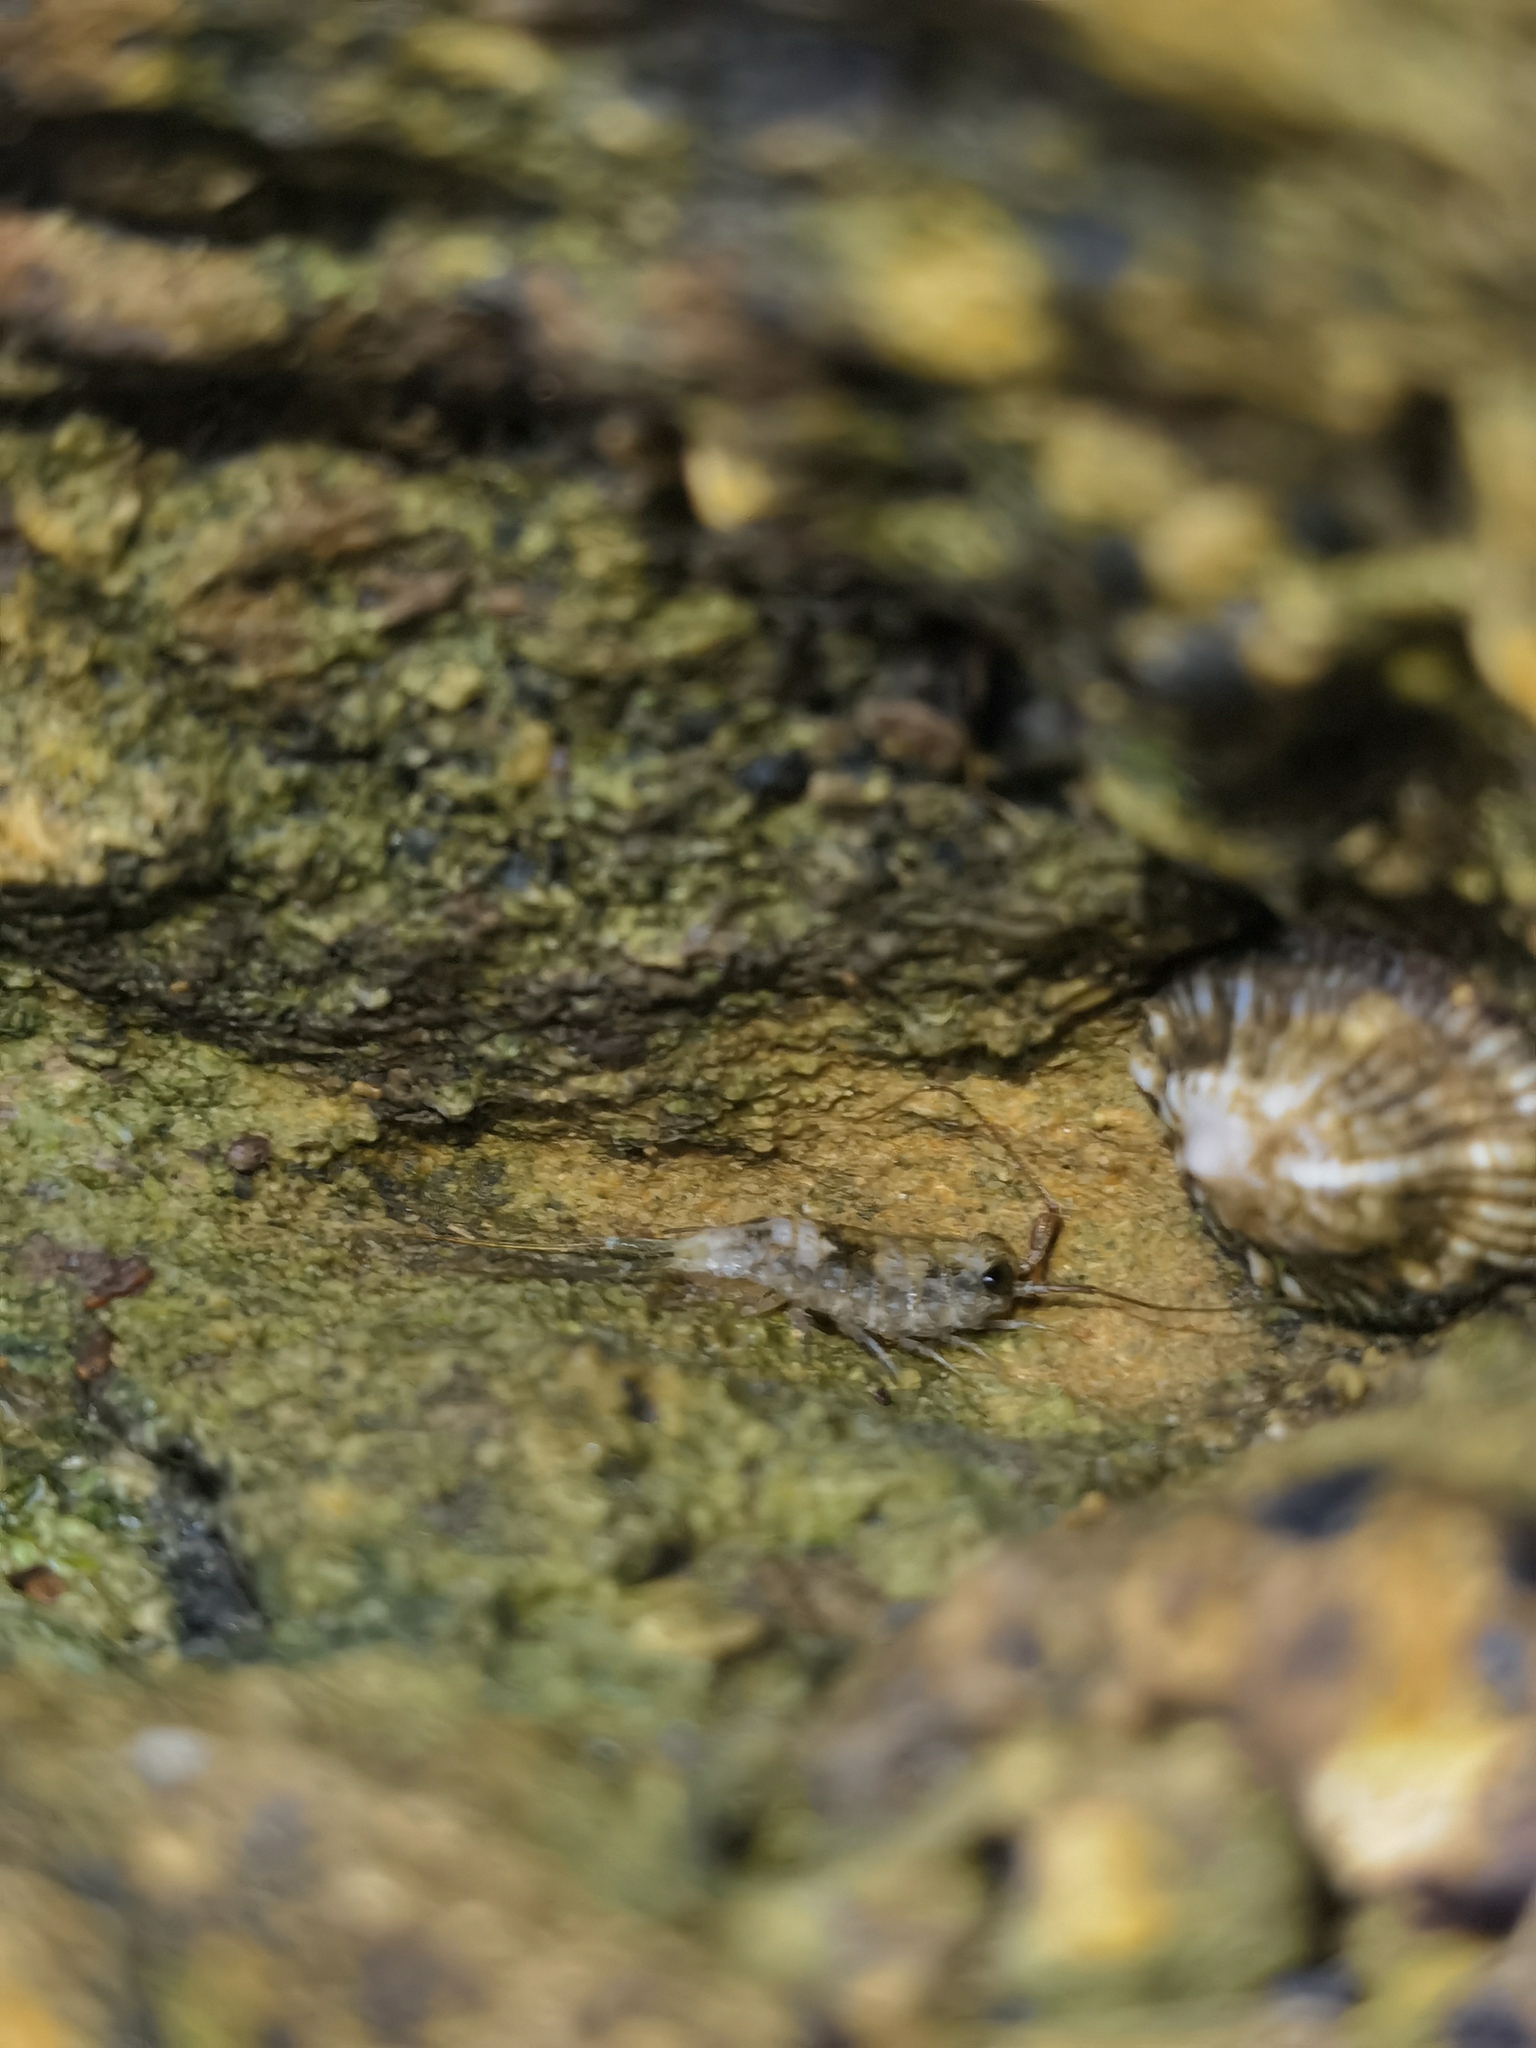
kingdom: Animalia
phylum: Arthropoda
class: Malacostraca
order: Isopoda
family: Ligiidae
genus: Ligia
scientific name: Ligia italica
